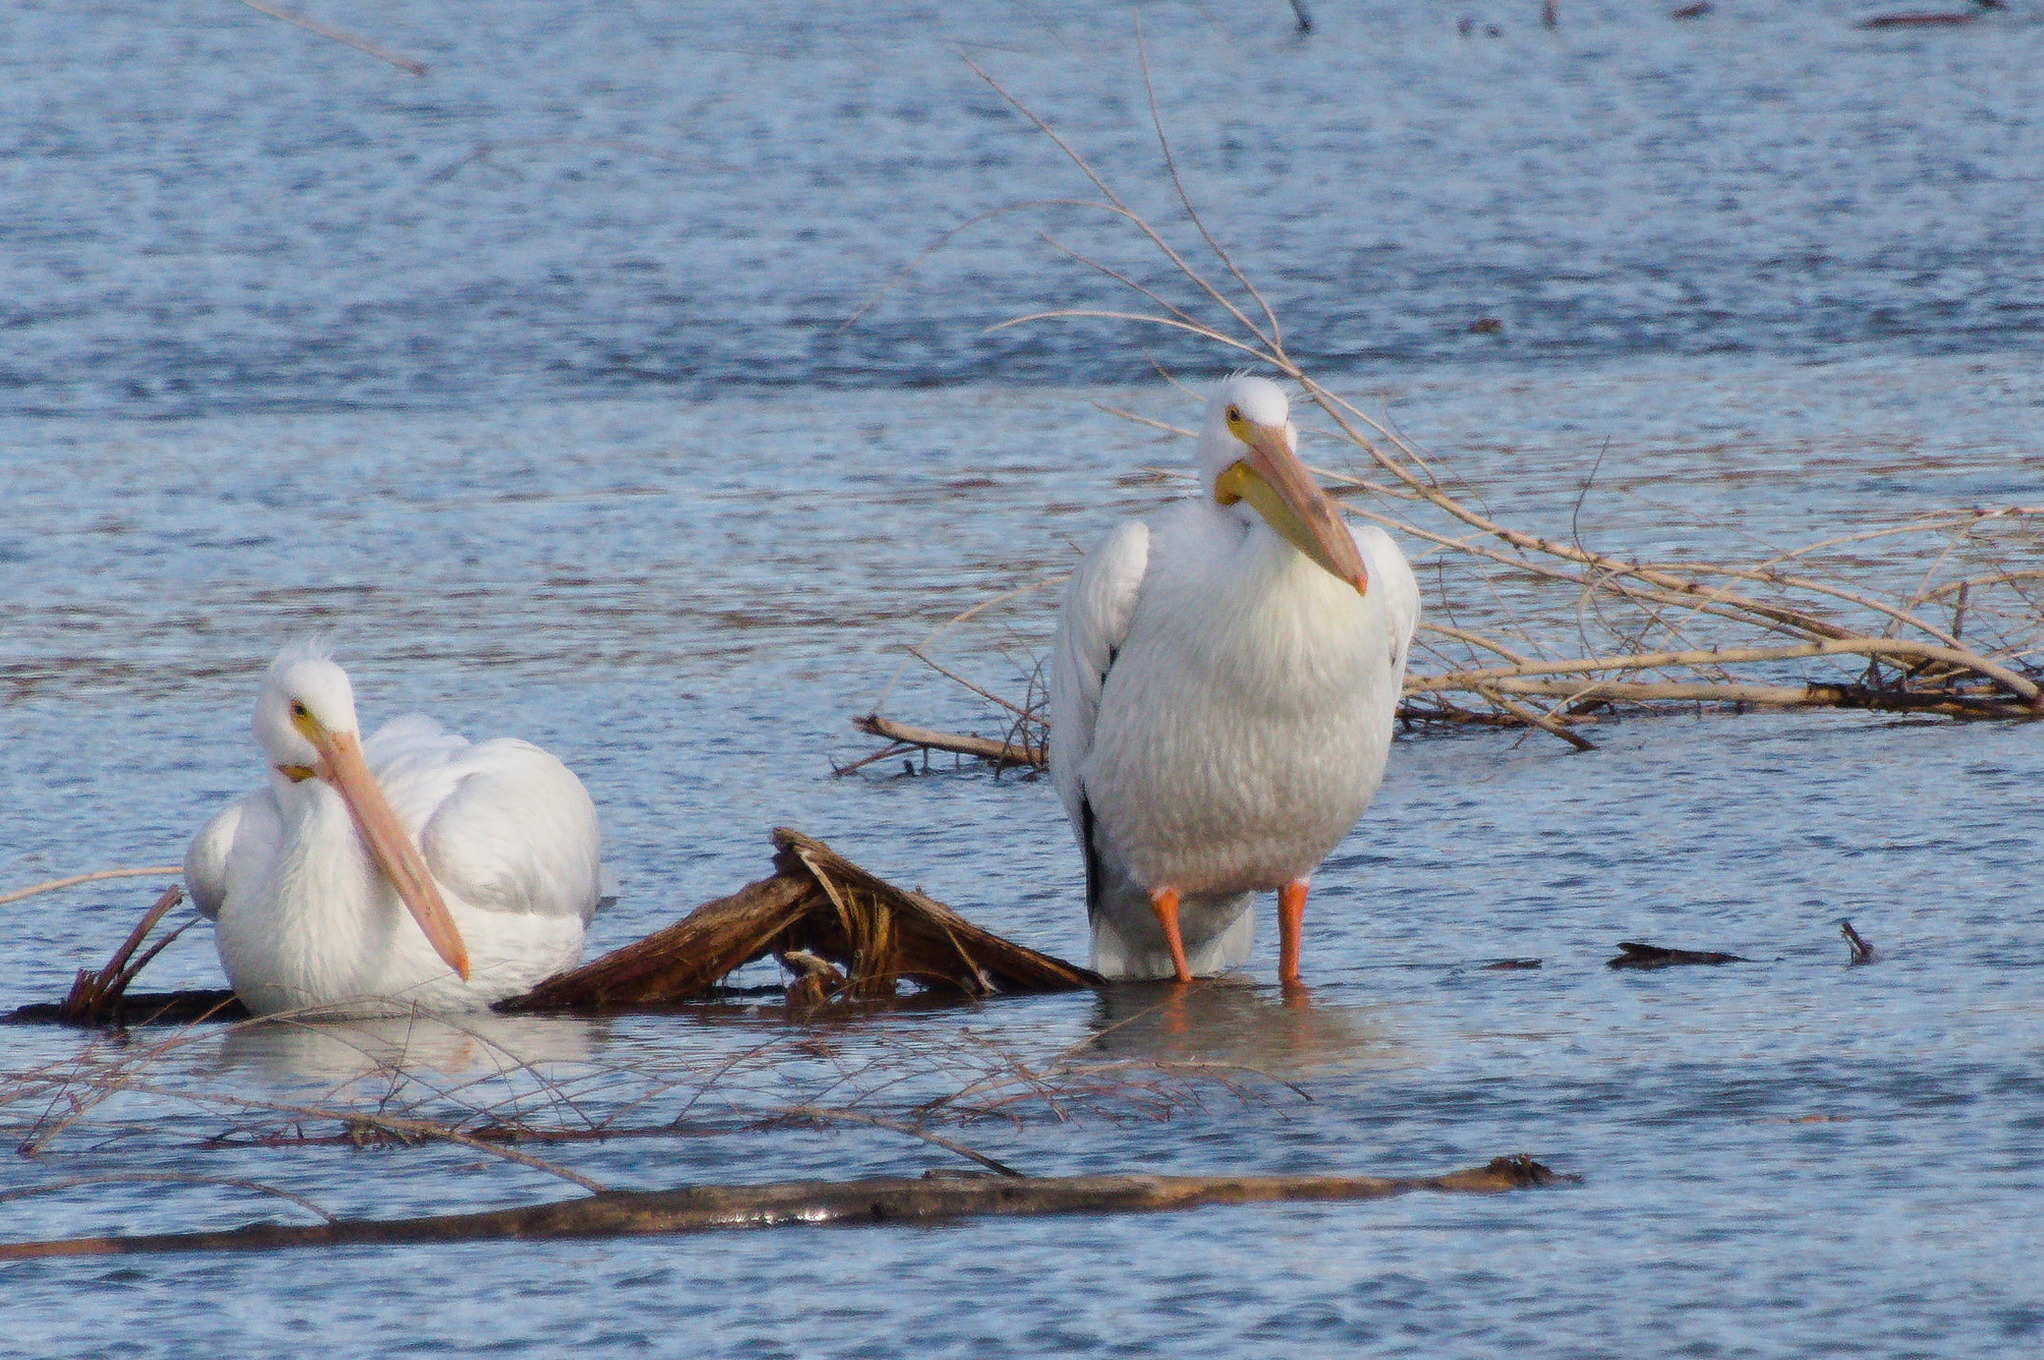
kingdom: Animalia
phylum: Chordata
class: Aves
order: Pelecaniformes
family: Pelecanidae
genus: Pelecanus
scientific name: Pelecanus erythrorhynchos
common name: American white pelican
